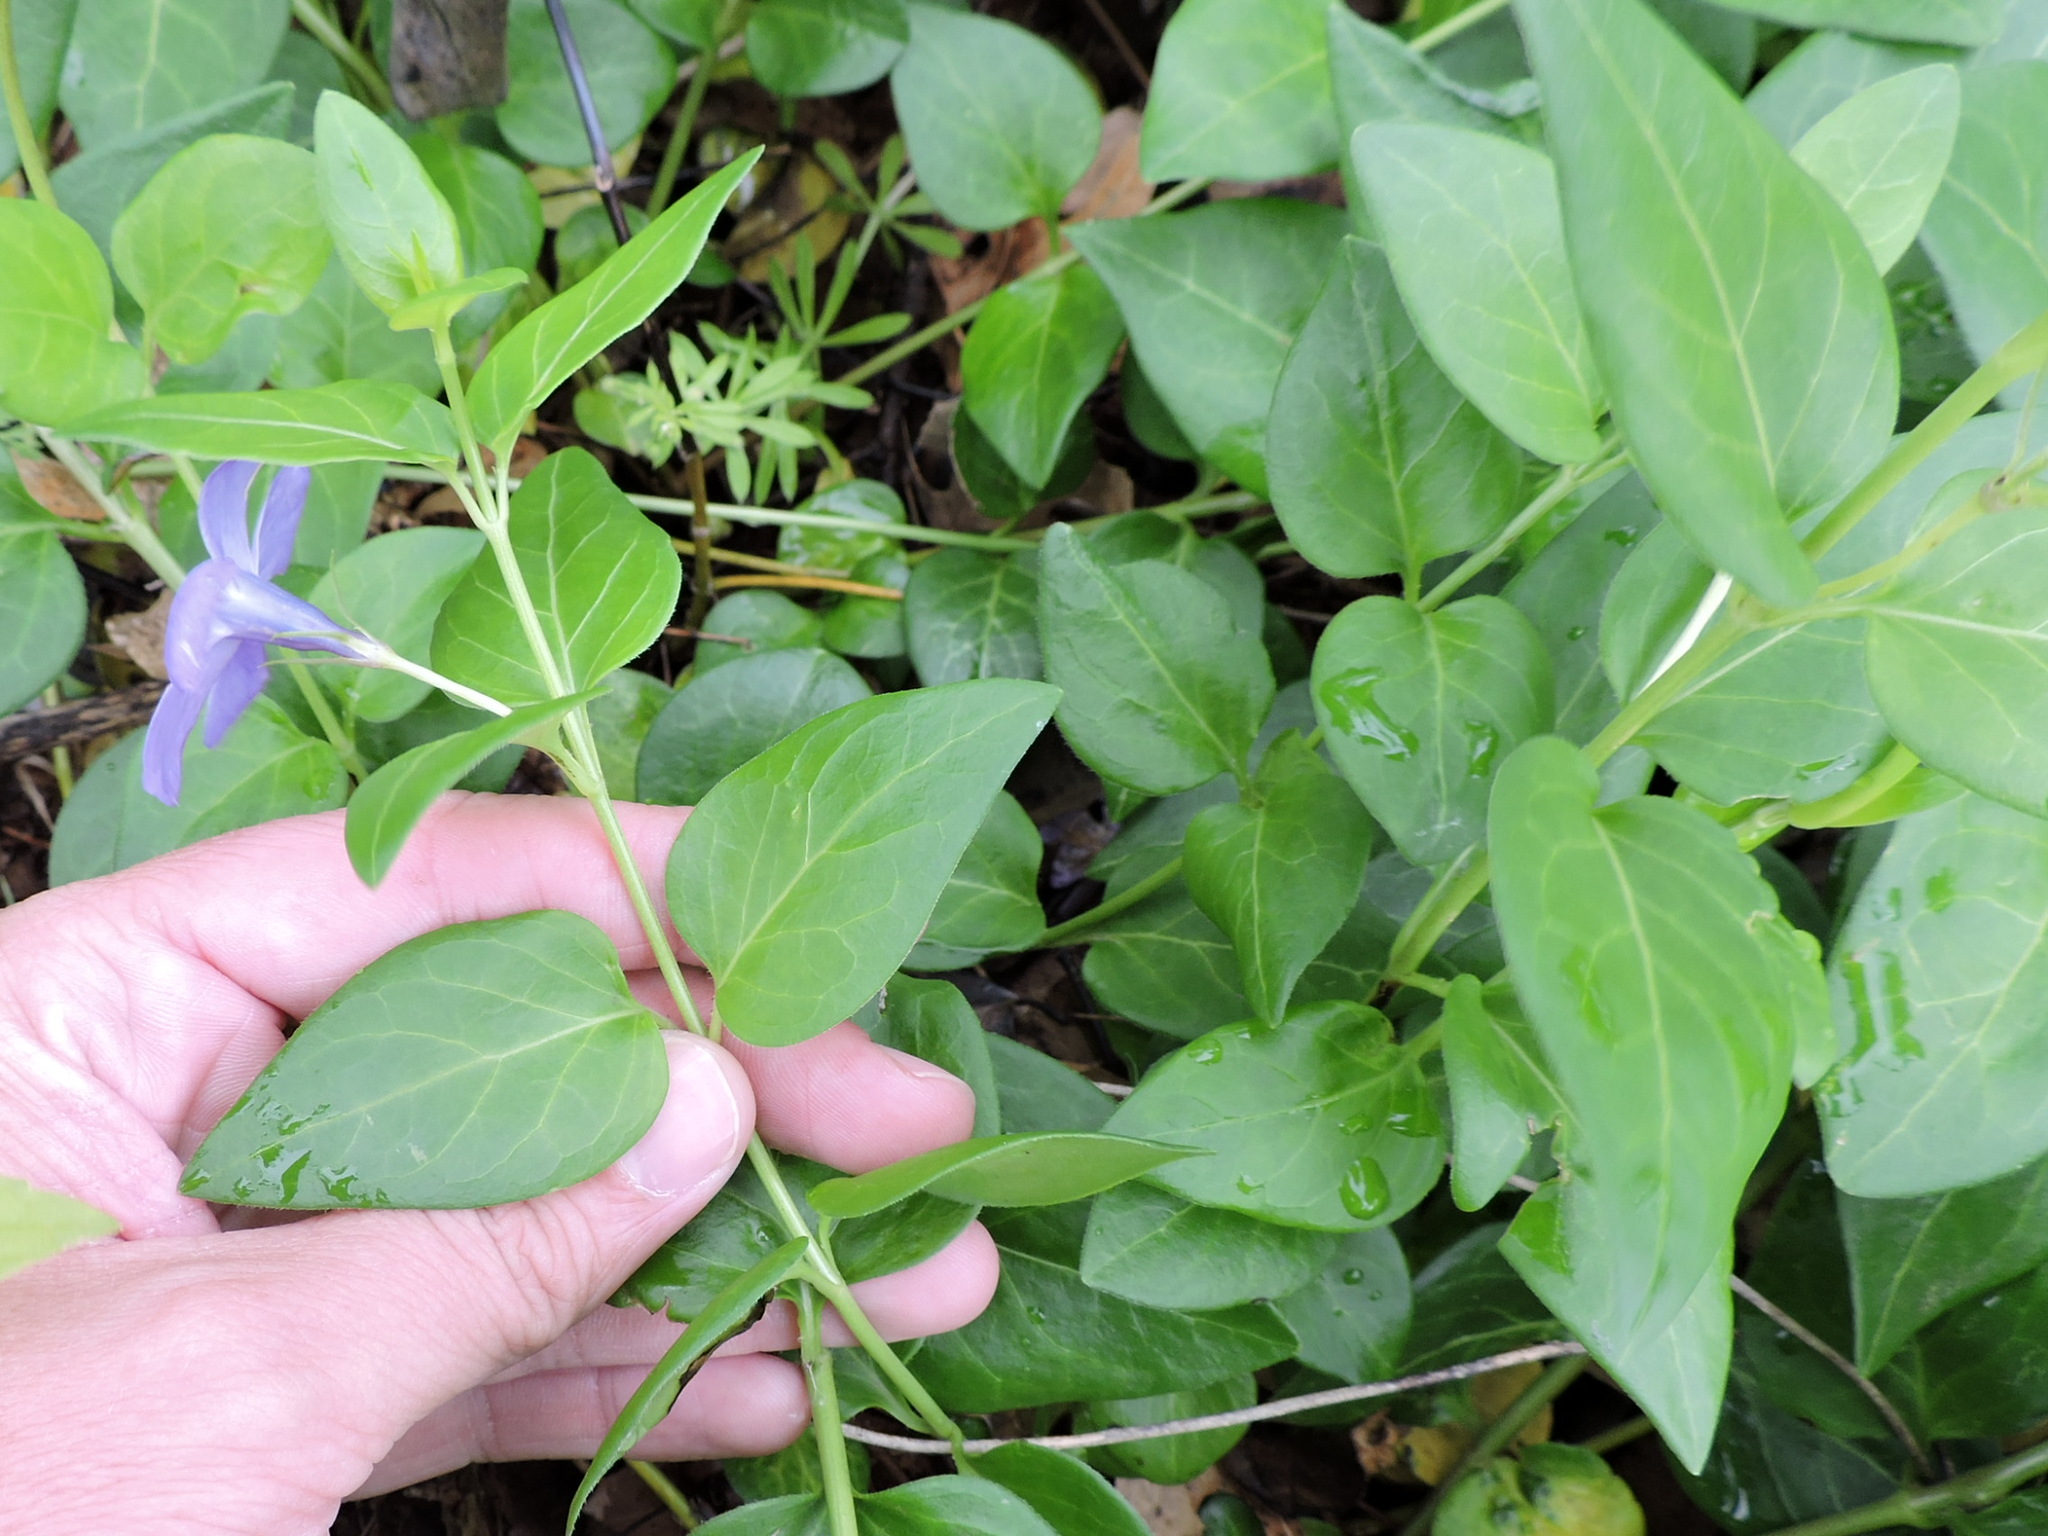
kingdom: Plantae
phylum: Tracheophyta
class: Magnoliopsida
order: Gentianales
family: Apocynaceae
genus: Vinca
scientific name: Vinca major
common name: Greater periwinkle
